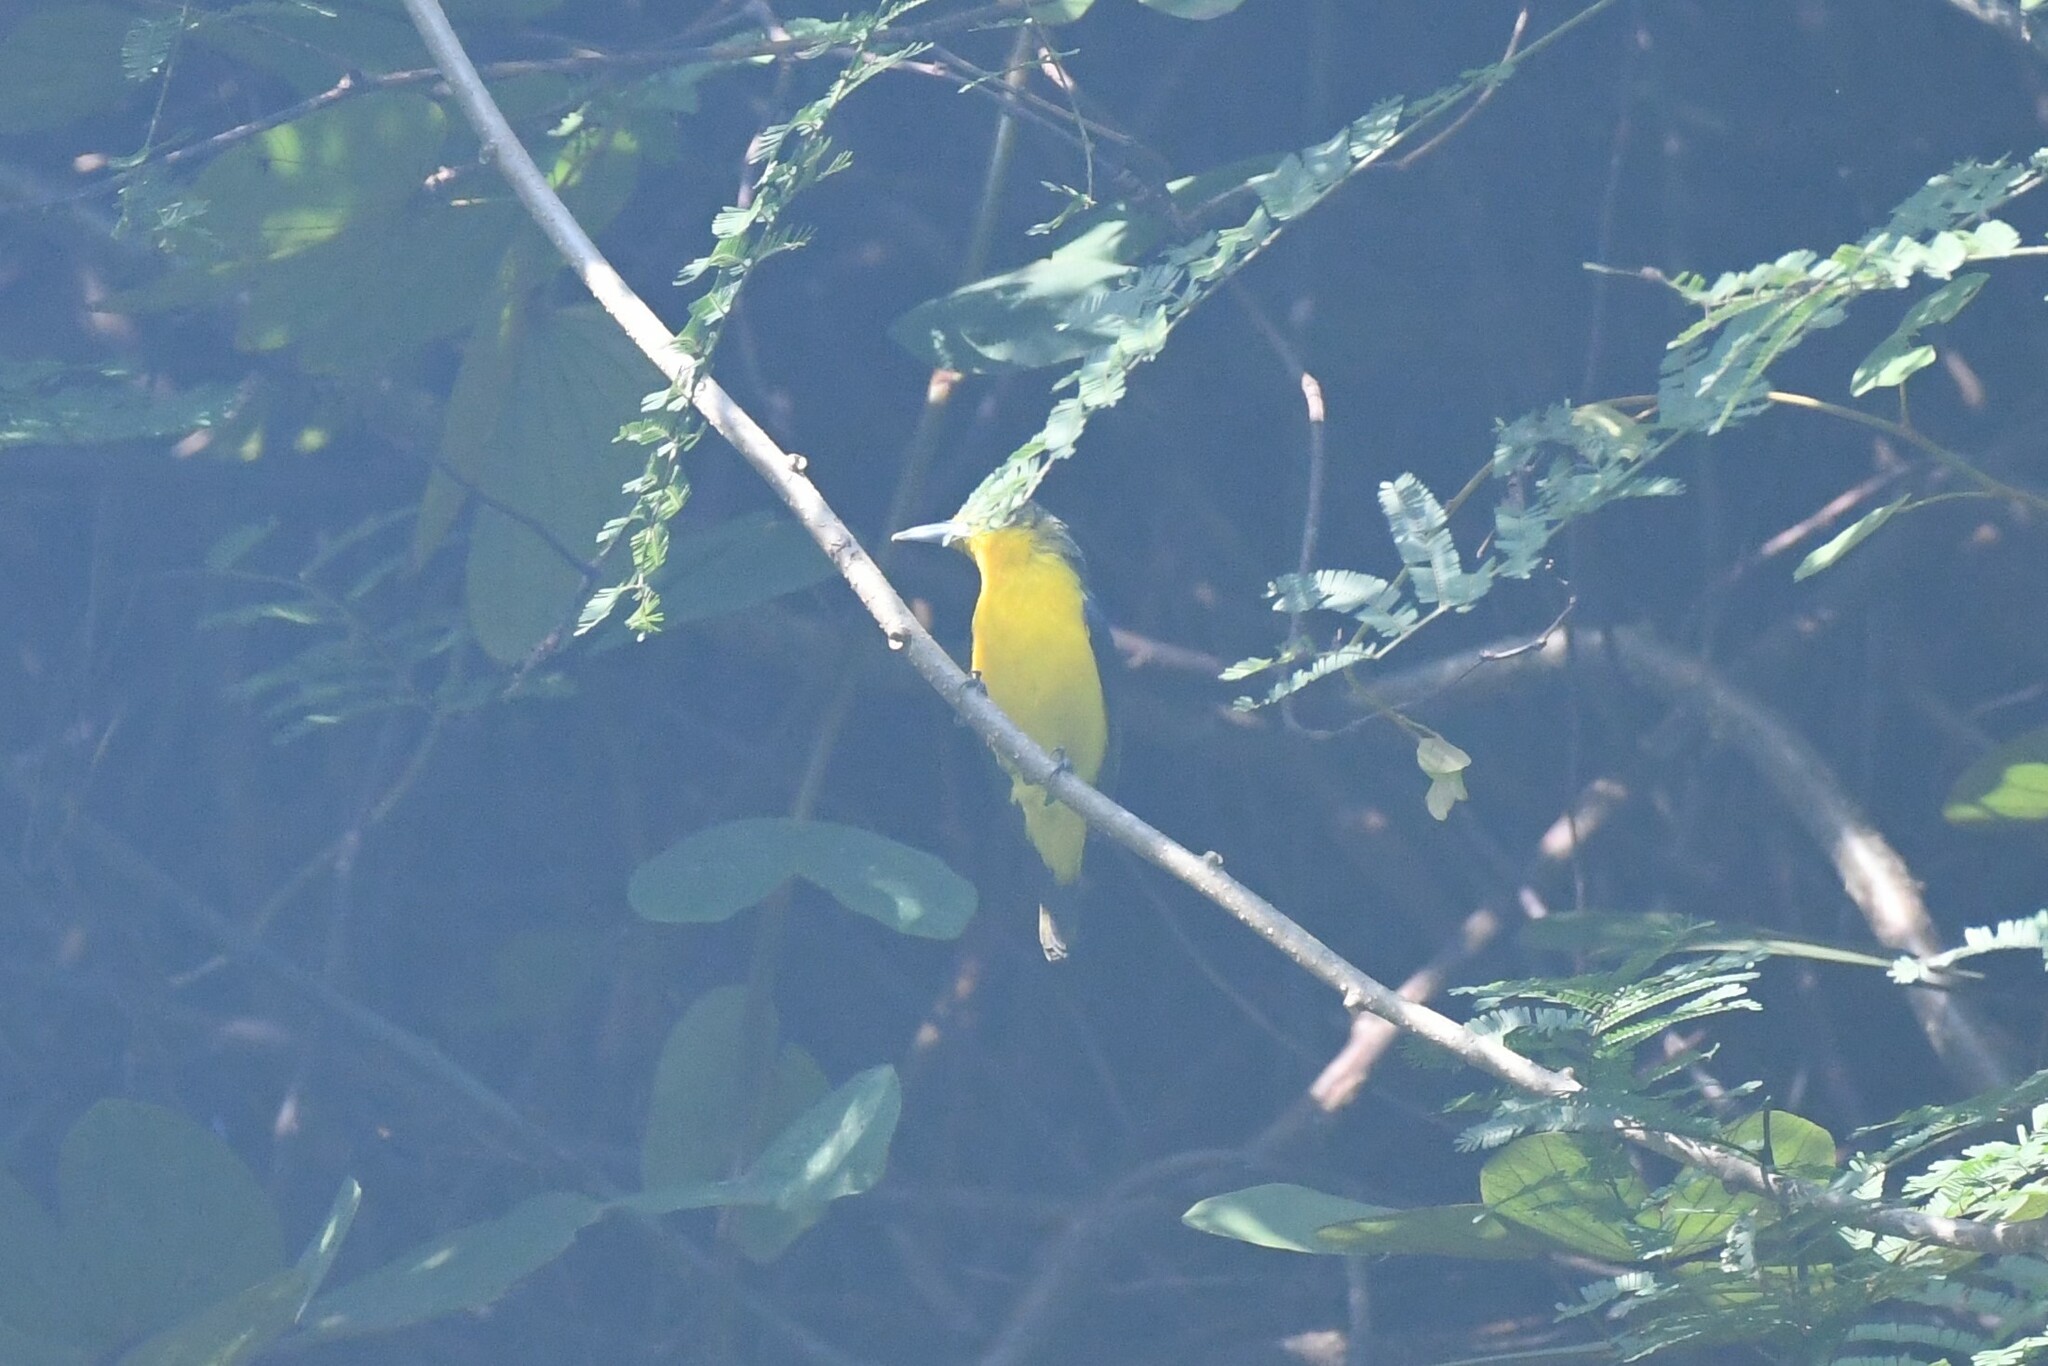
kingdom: Animalia
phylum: Chordata
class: Aves
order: Passeriformes
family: Aegithinidae
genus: Aegithina
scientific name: Aegithina lafresnayei
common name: Great iora
